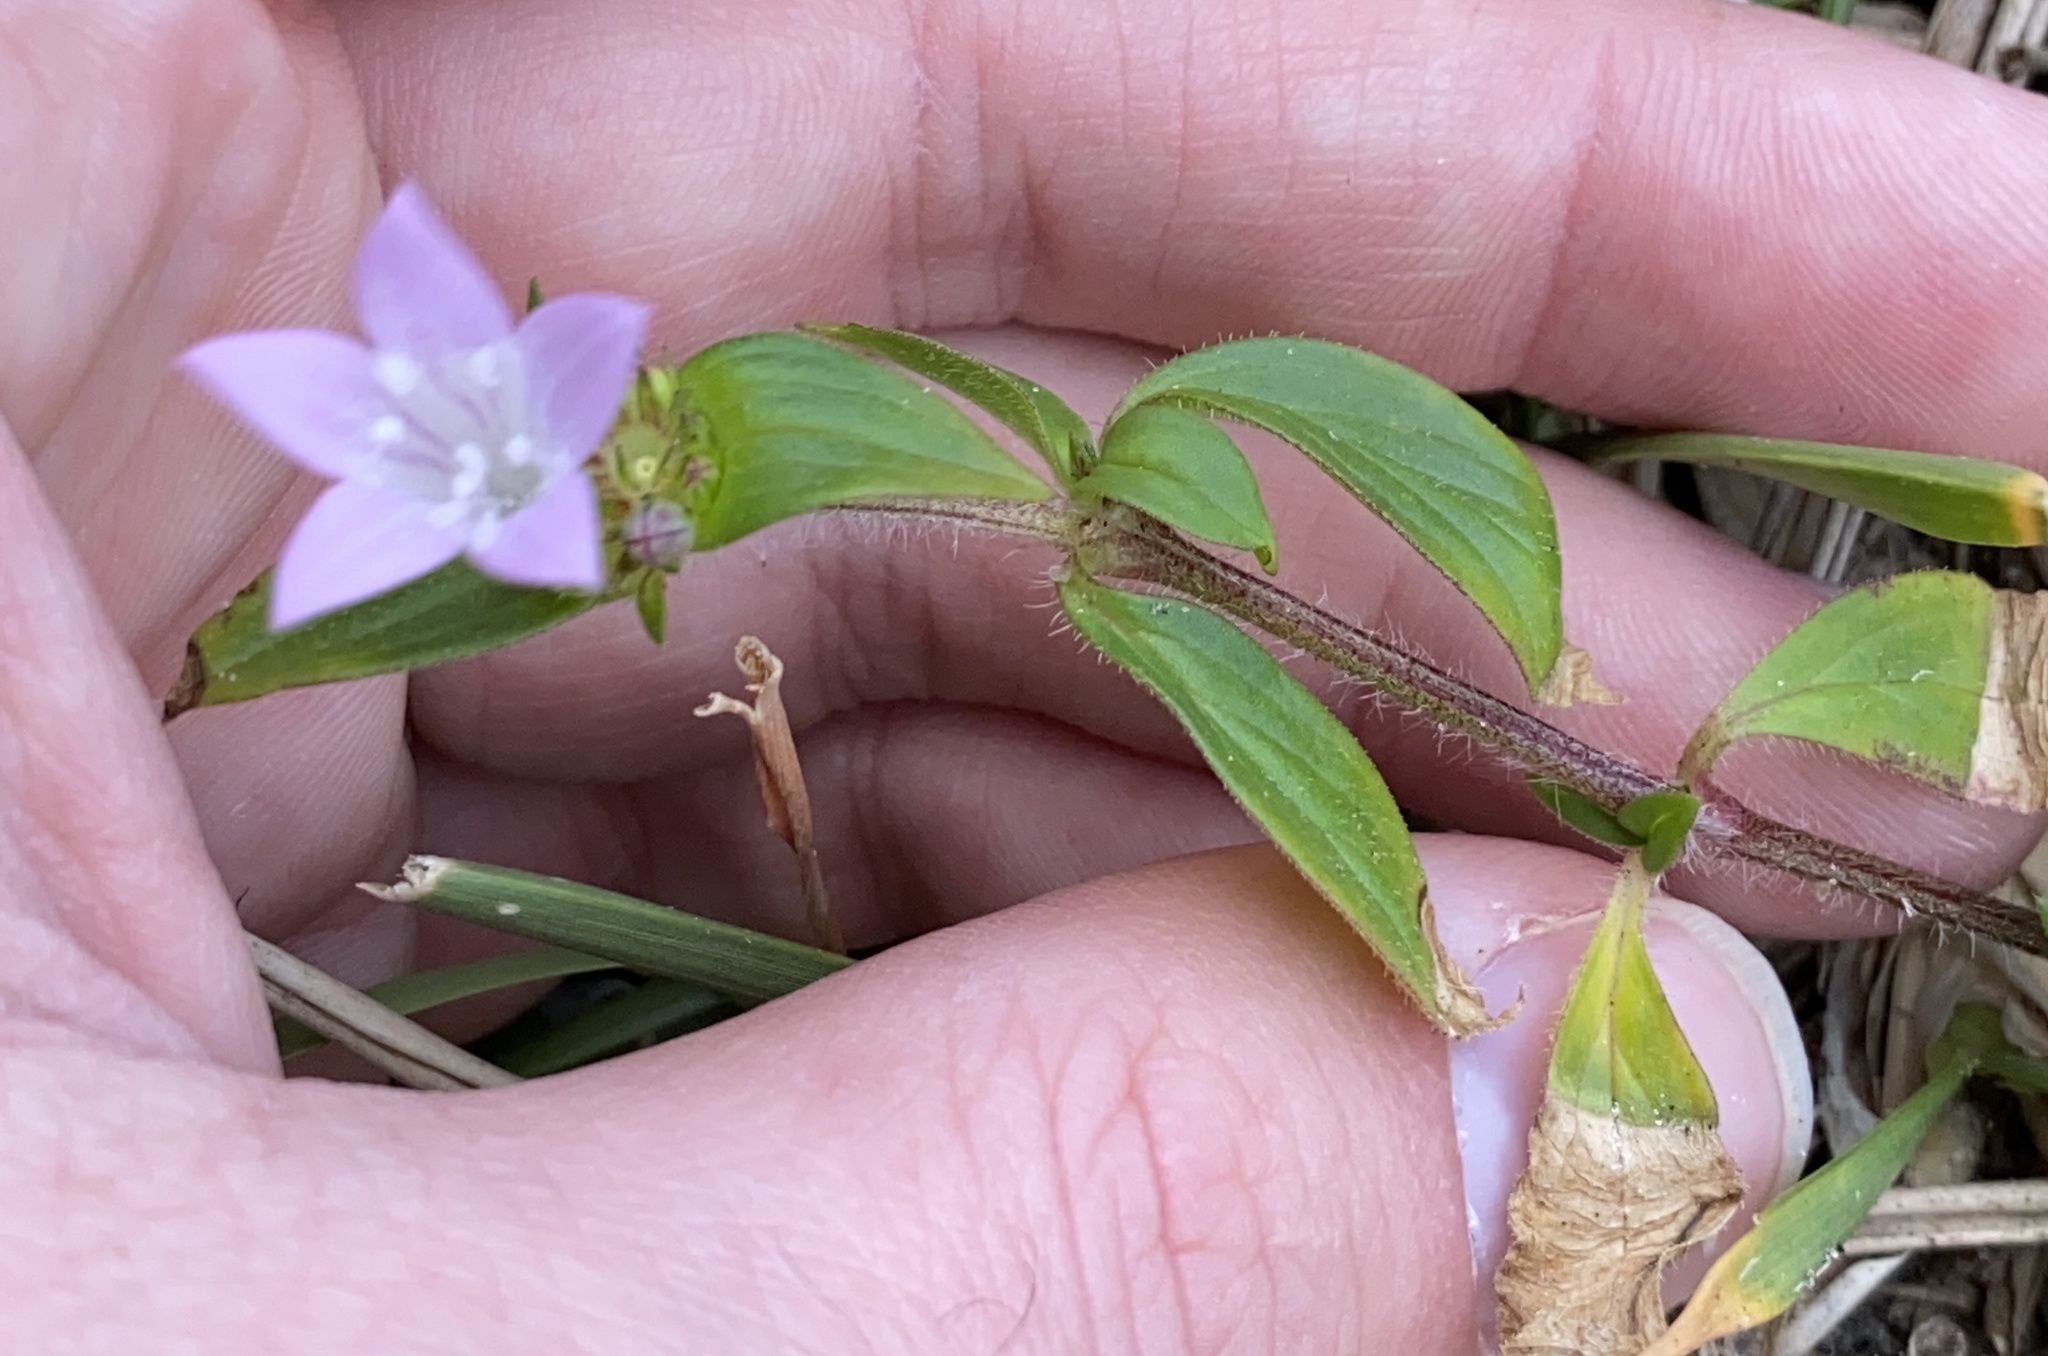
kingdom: Plantae
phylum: Tracheophyta
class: Magnoliopsida
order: Gentianales
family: Rubiaceae
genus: Richardia
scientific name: Richardia grandiflora
